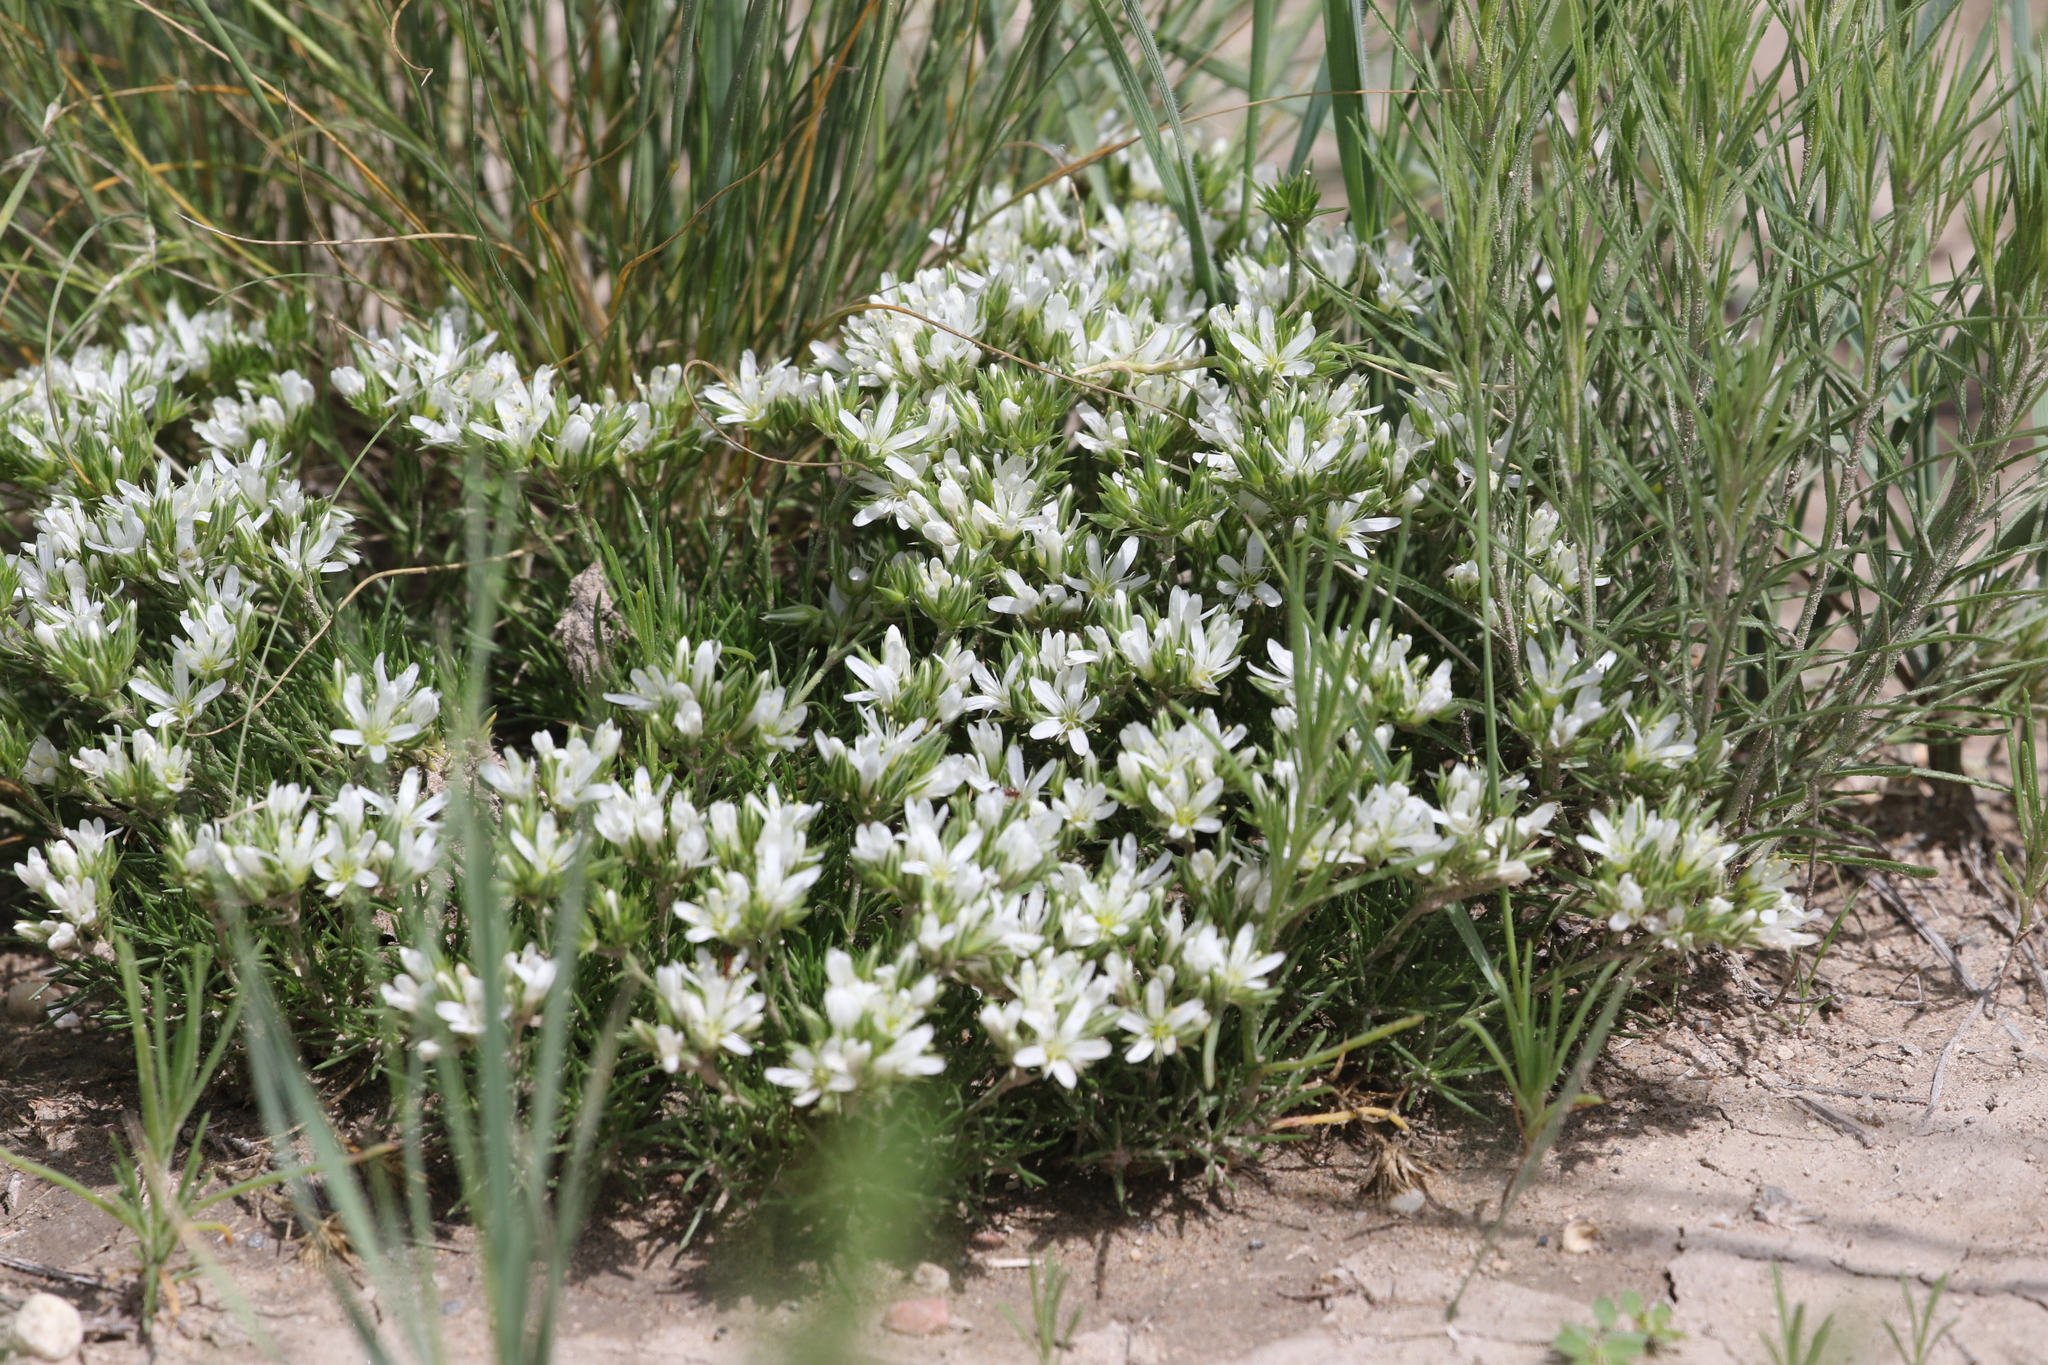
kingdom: Plantae
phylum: Tracheophyta
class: Magnoliopsida
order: Caryophyllales
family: Caryophyllaceae
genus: Eremogone
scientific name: Eremogone hookeri
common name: Hooker's sandwort
